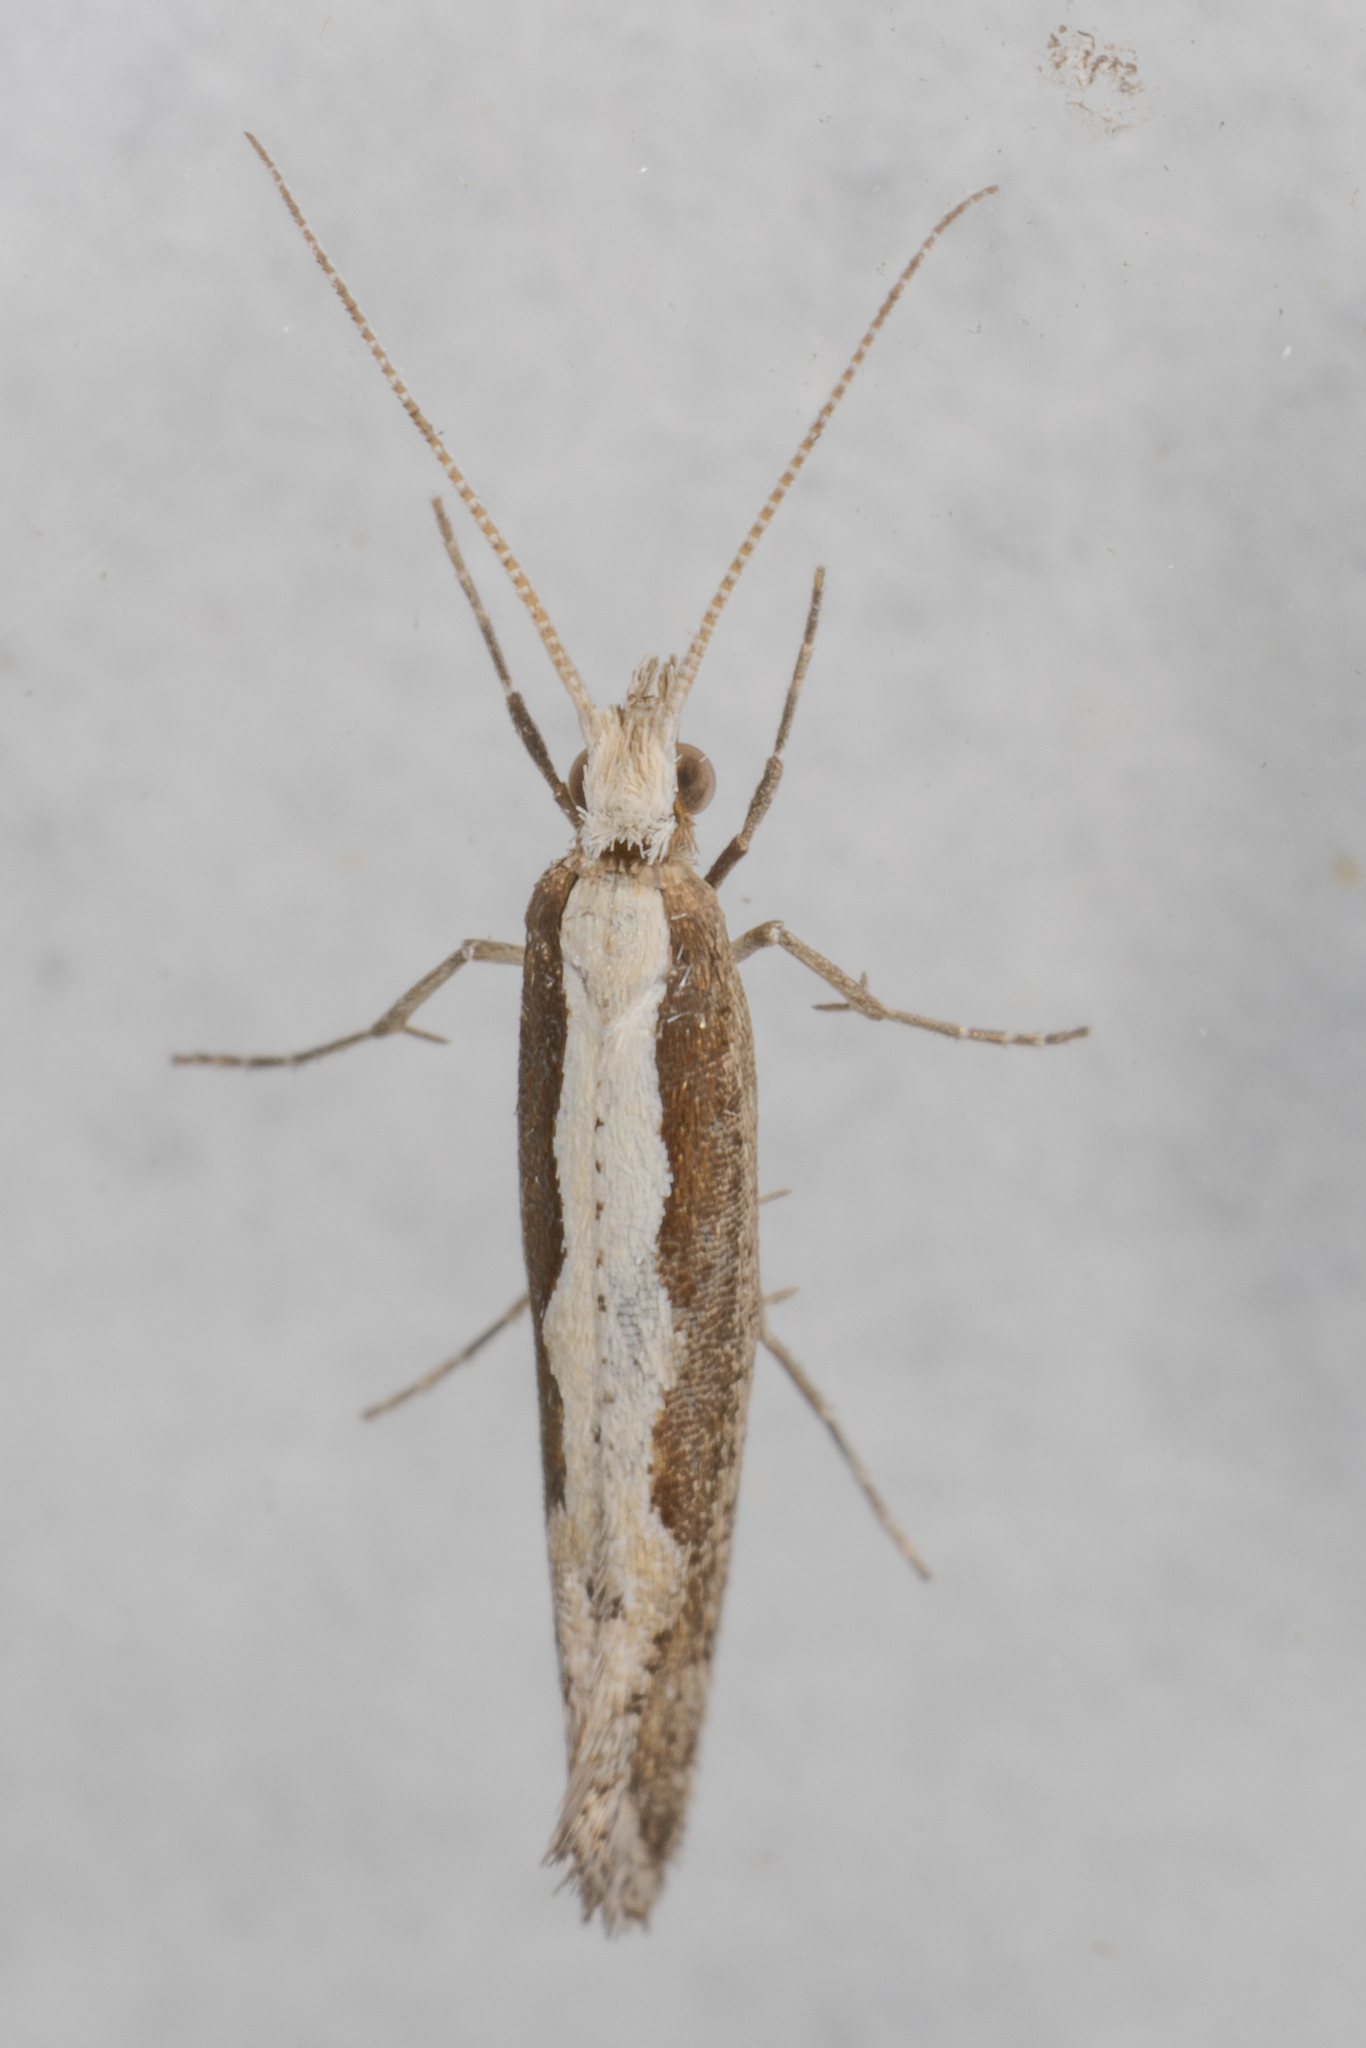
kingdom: Animalia
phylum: Arthropoda
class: Insecta
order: Lepidoptera
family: Plutellidae
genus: Plutella
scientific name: Plutella xylostella
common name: Diamond-back moth
